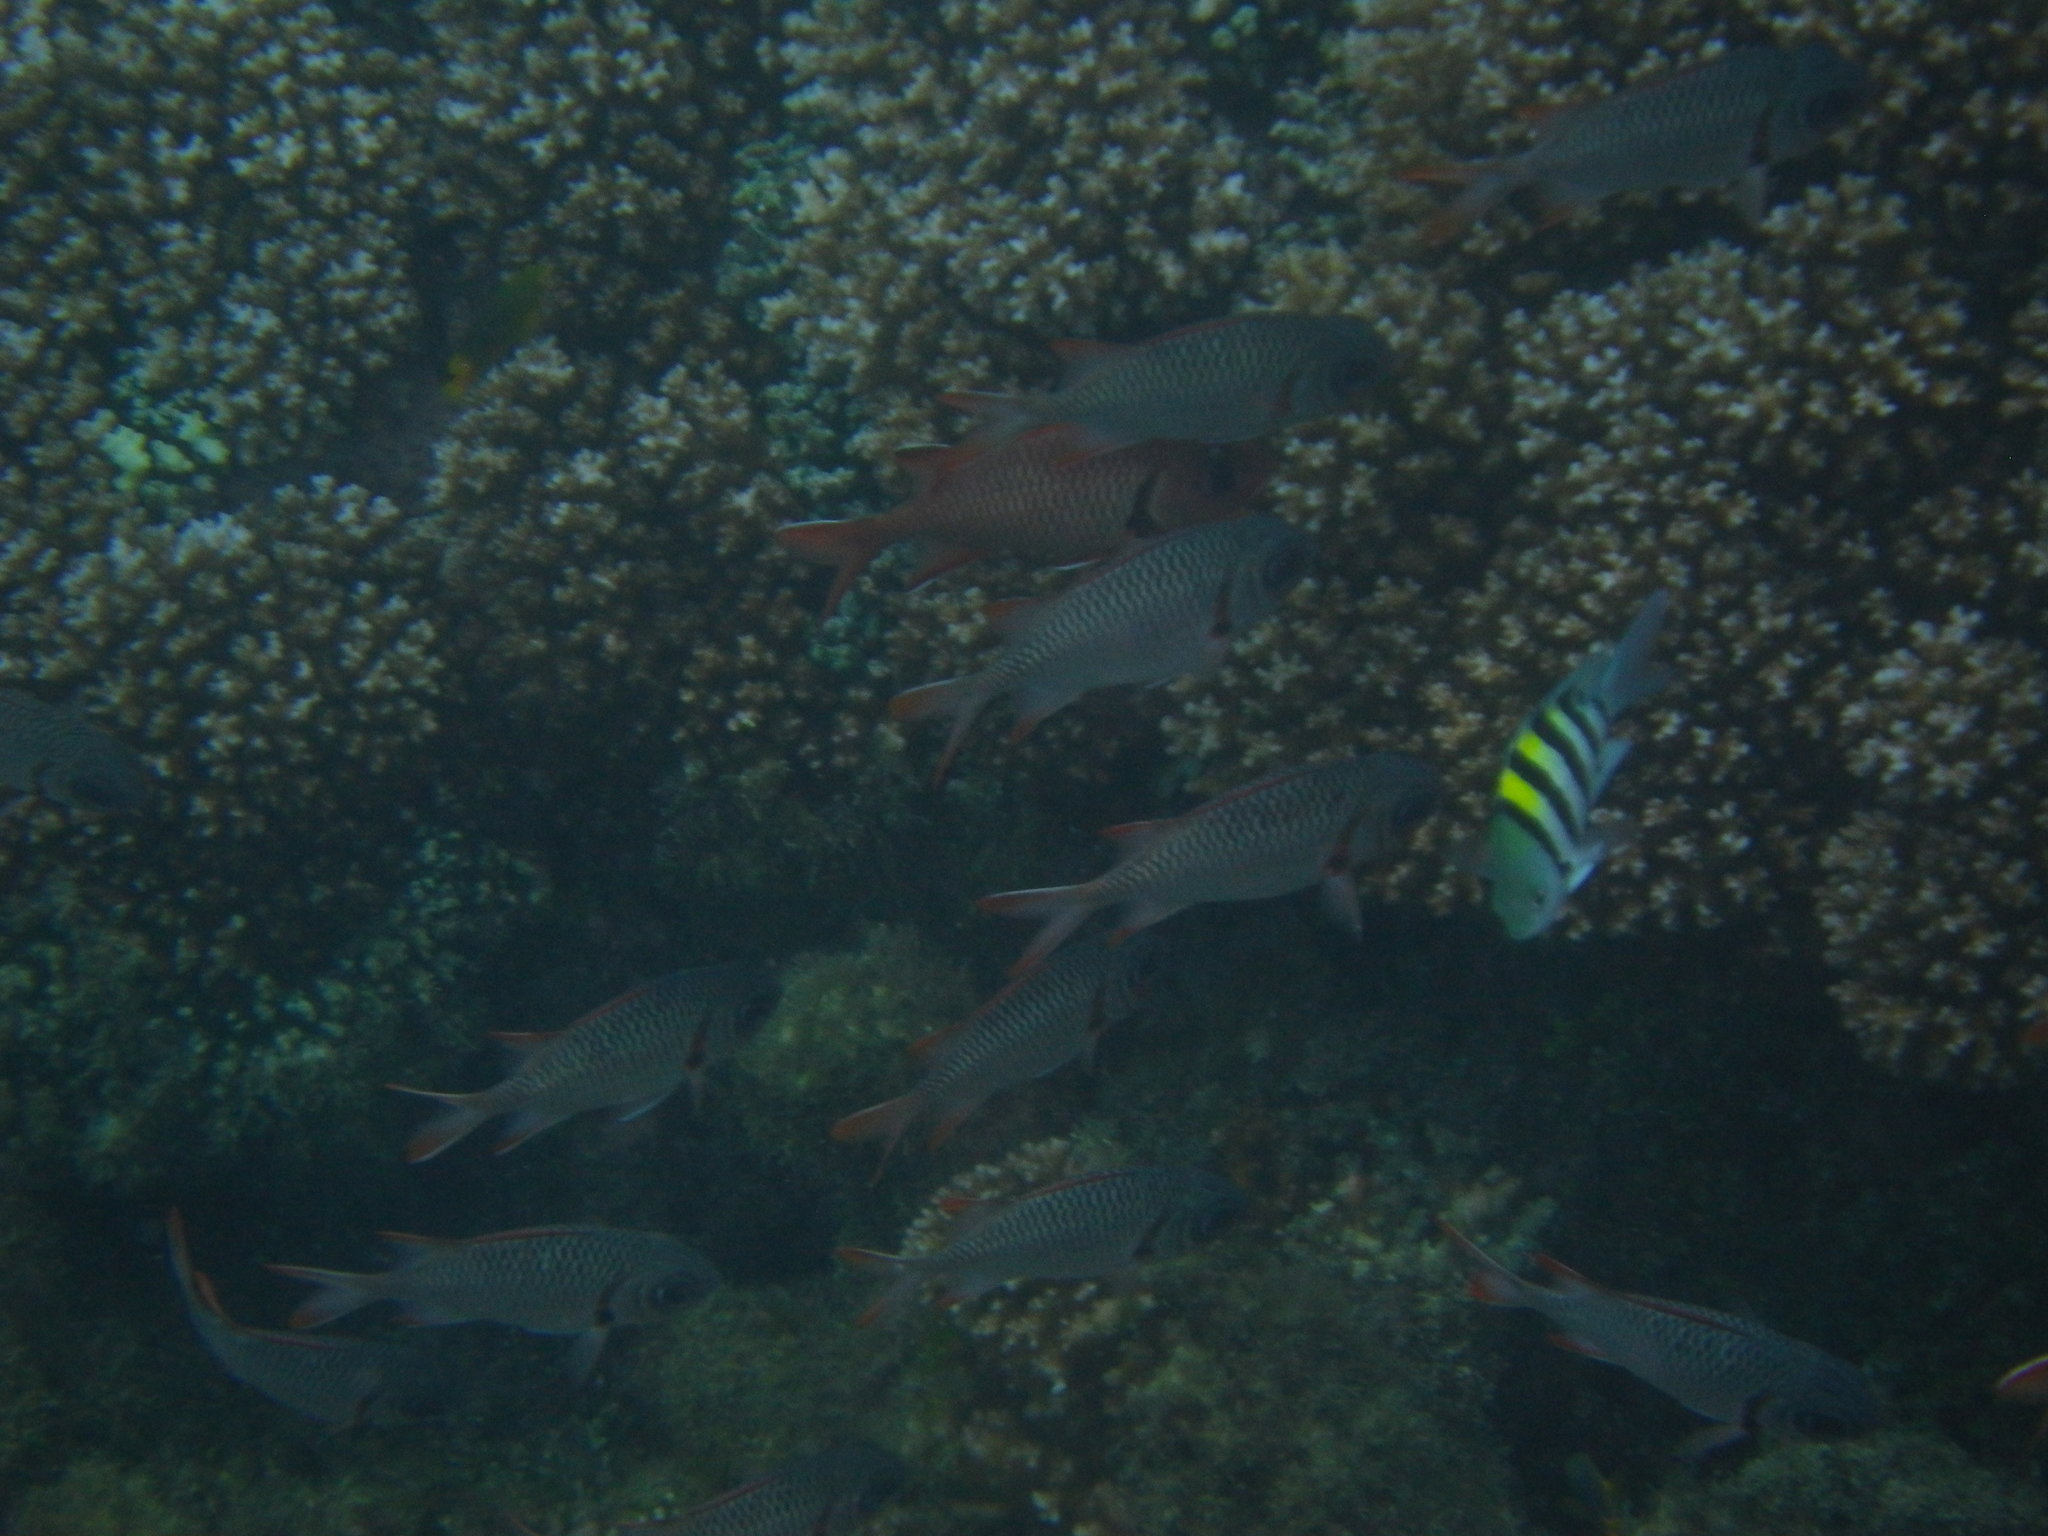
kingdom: Animalia
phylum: Chordata
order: Beryciformes
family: Holocentridae
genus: Myripristis
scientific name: Myripristis violacea
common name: Lattice soldierfish
